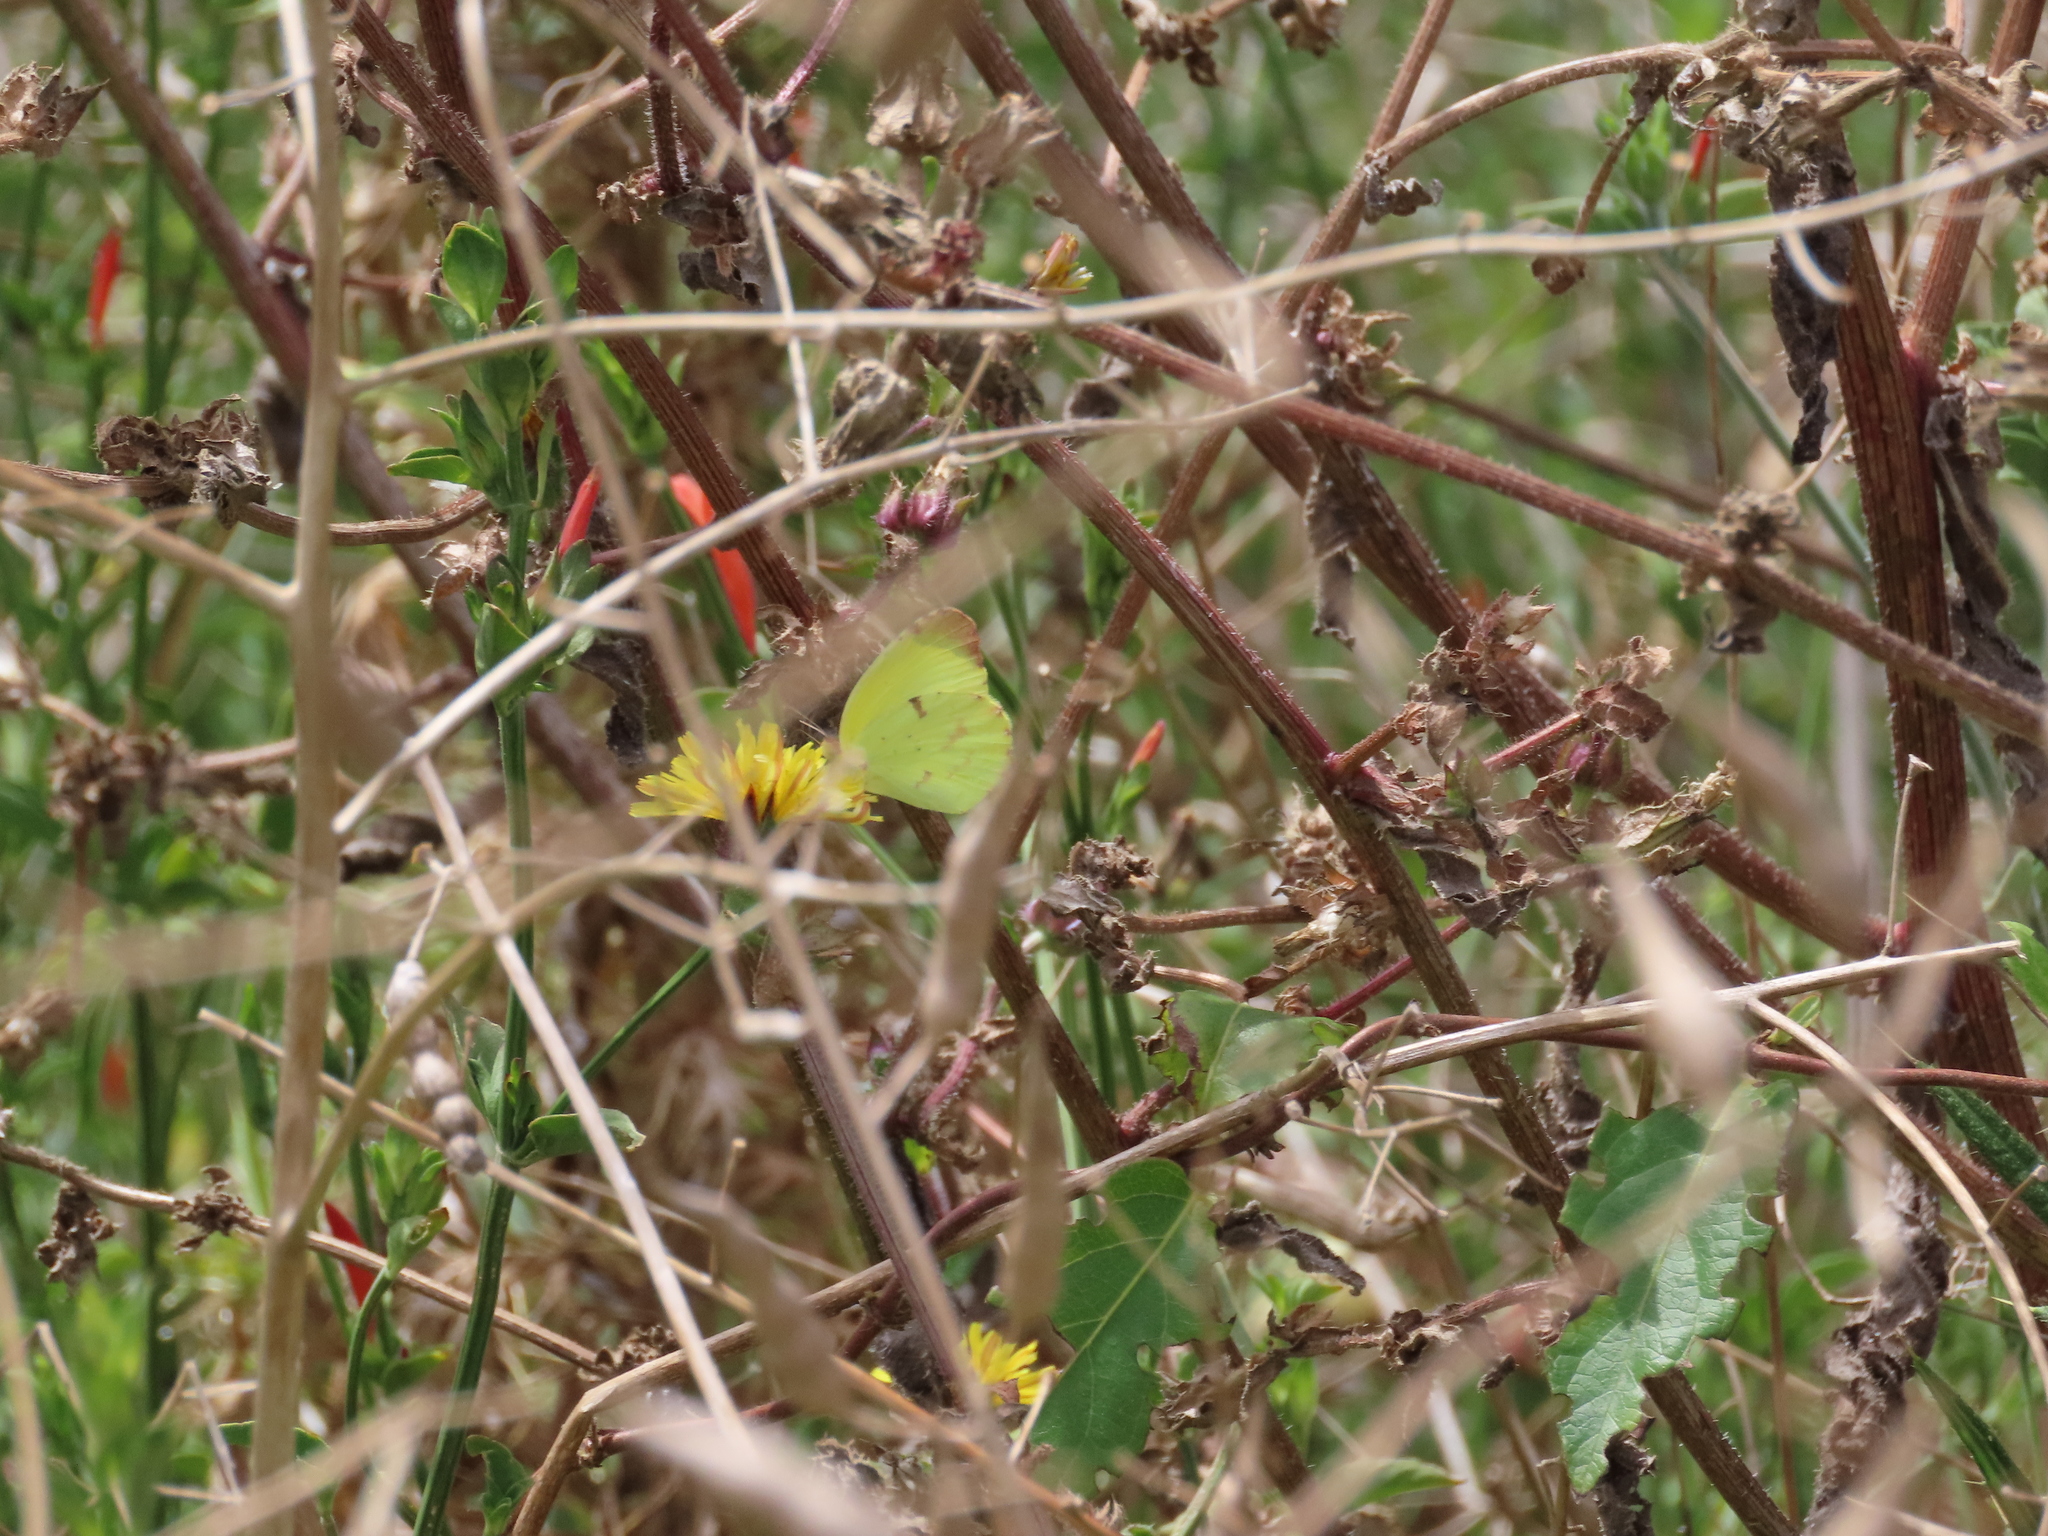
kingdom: Animalia
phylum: Arthropoda
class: Insecta
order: Lepidoptera
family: Pieridae
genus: Teriocolias
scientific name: Teriocolias
